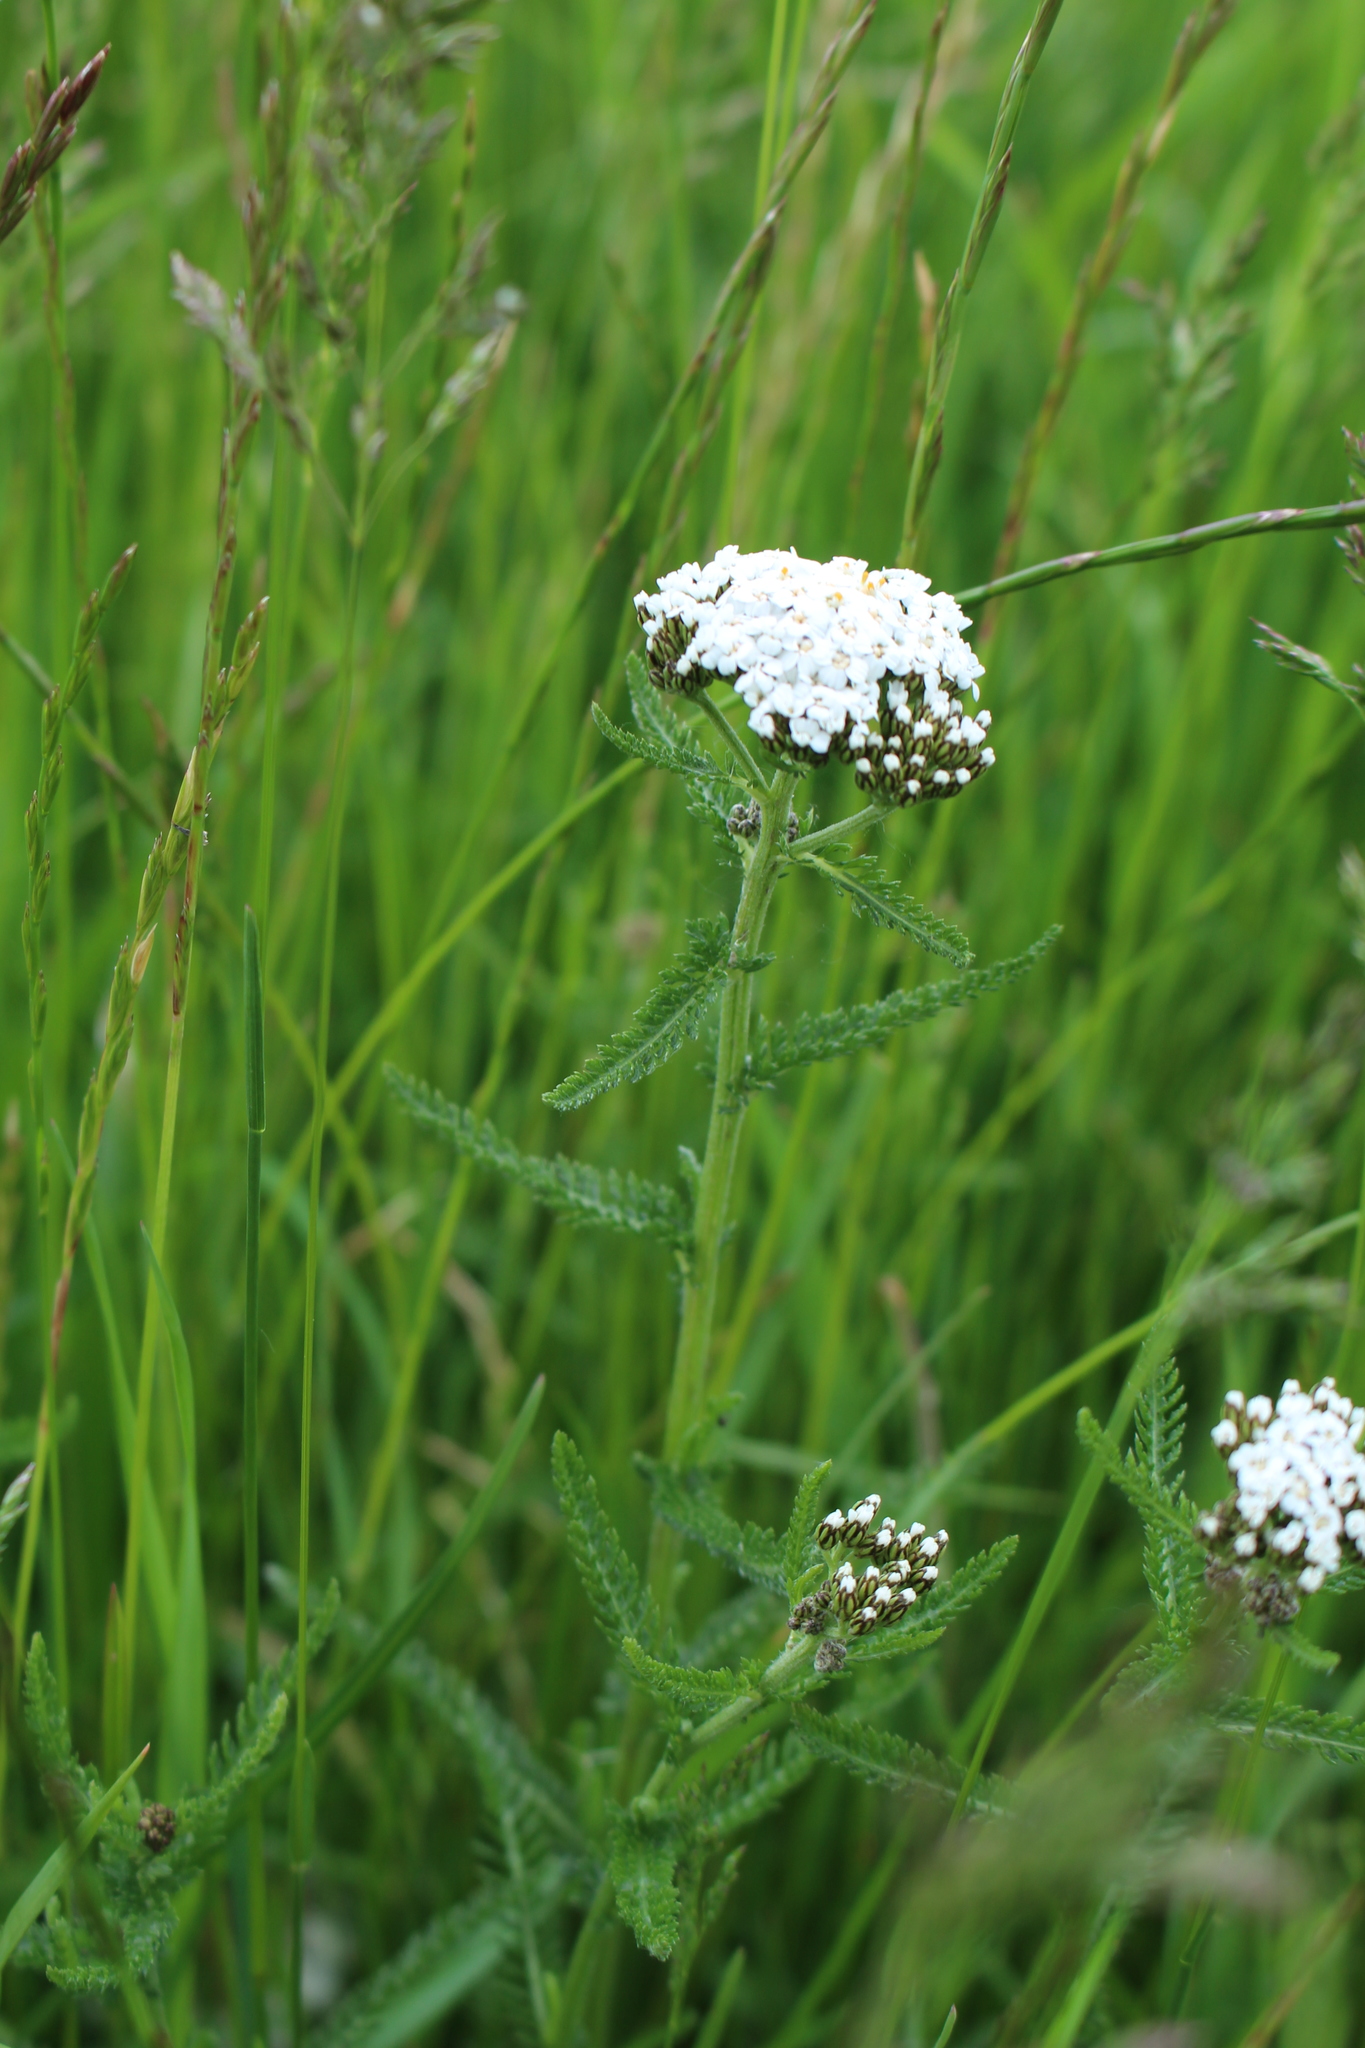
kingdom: Plantae
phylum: Tracheophyta
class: Magnoliopsida
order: Asterales
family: Asteraceae
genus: Achillea
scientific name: Achillea millefolium
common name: Yarrow
